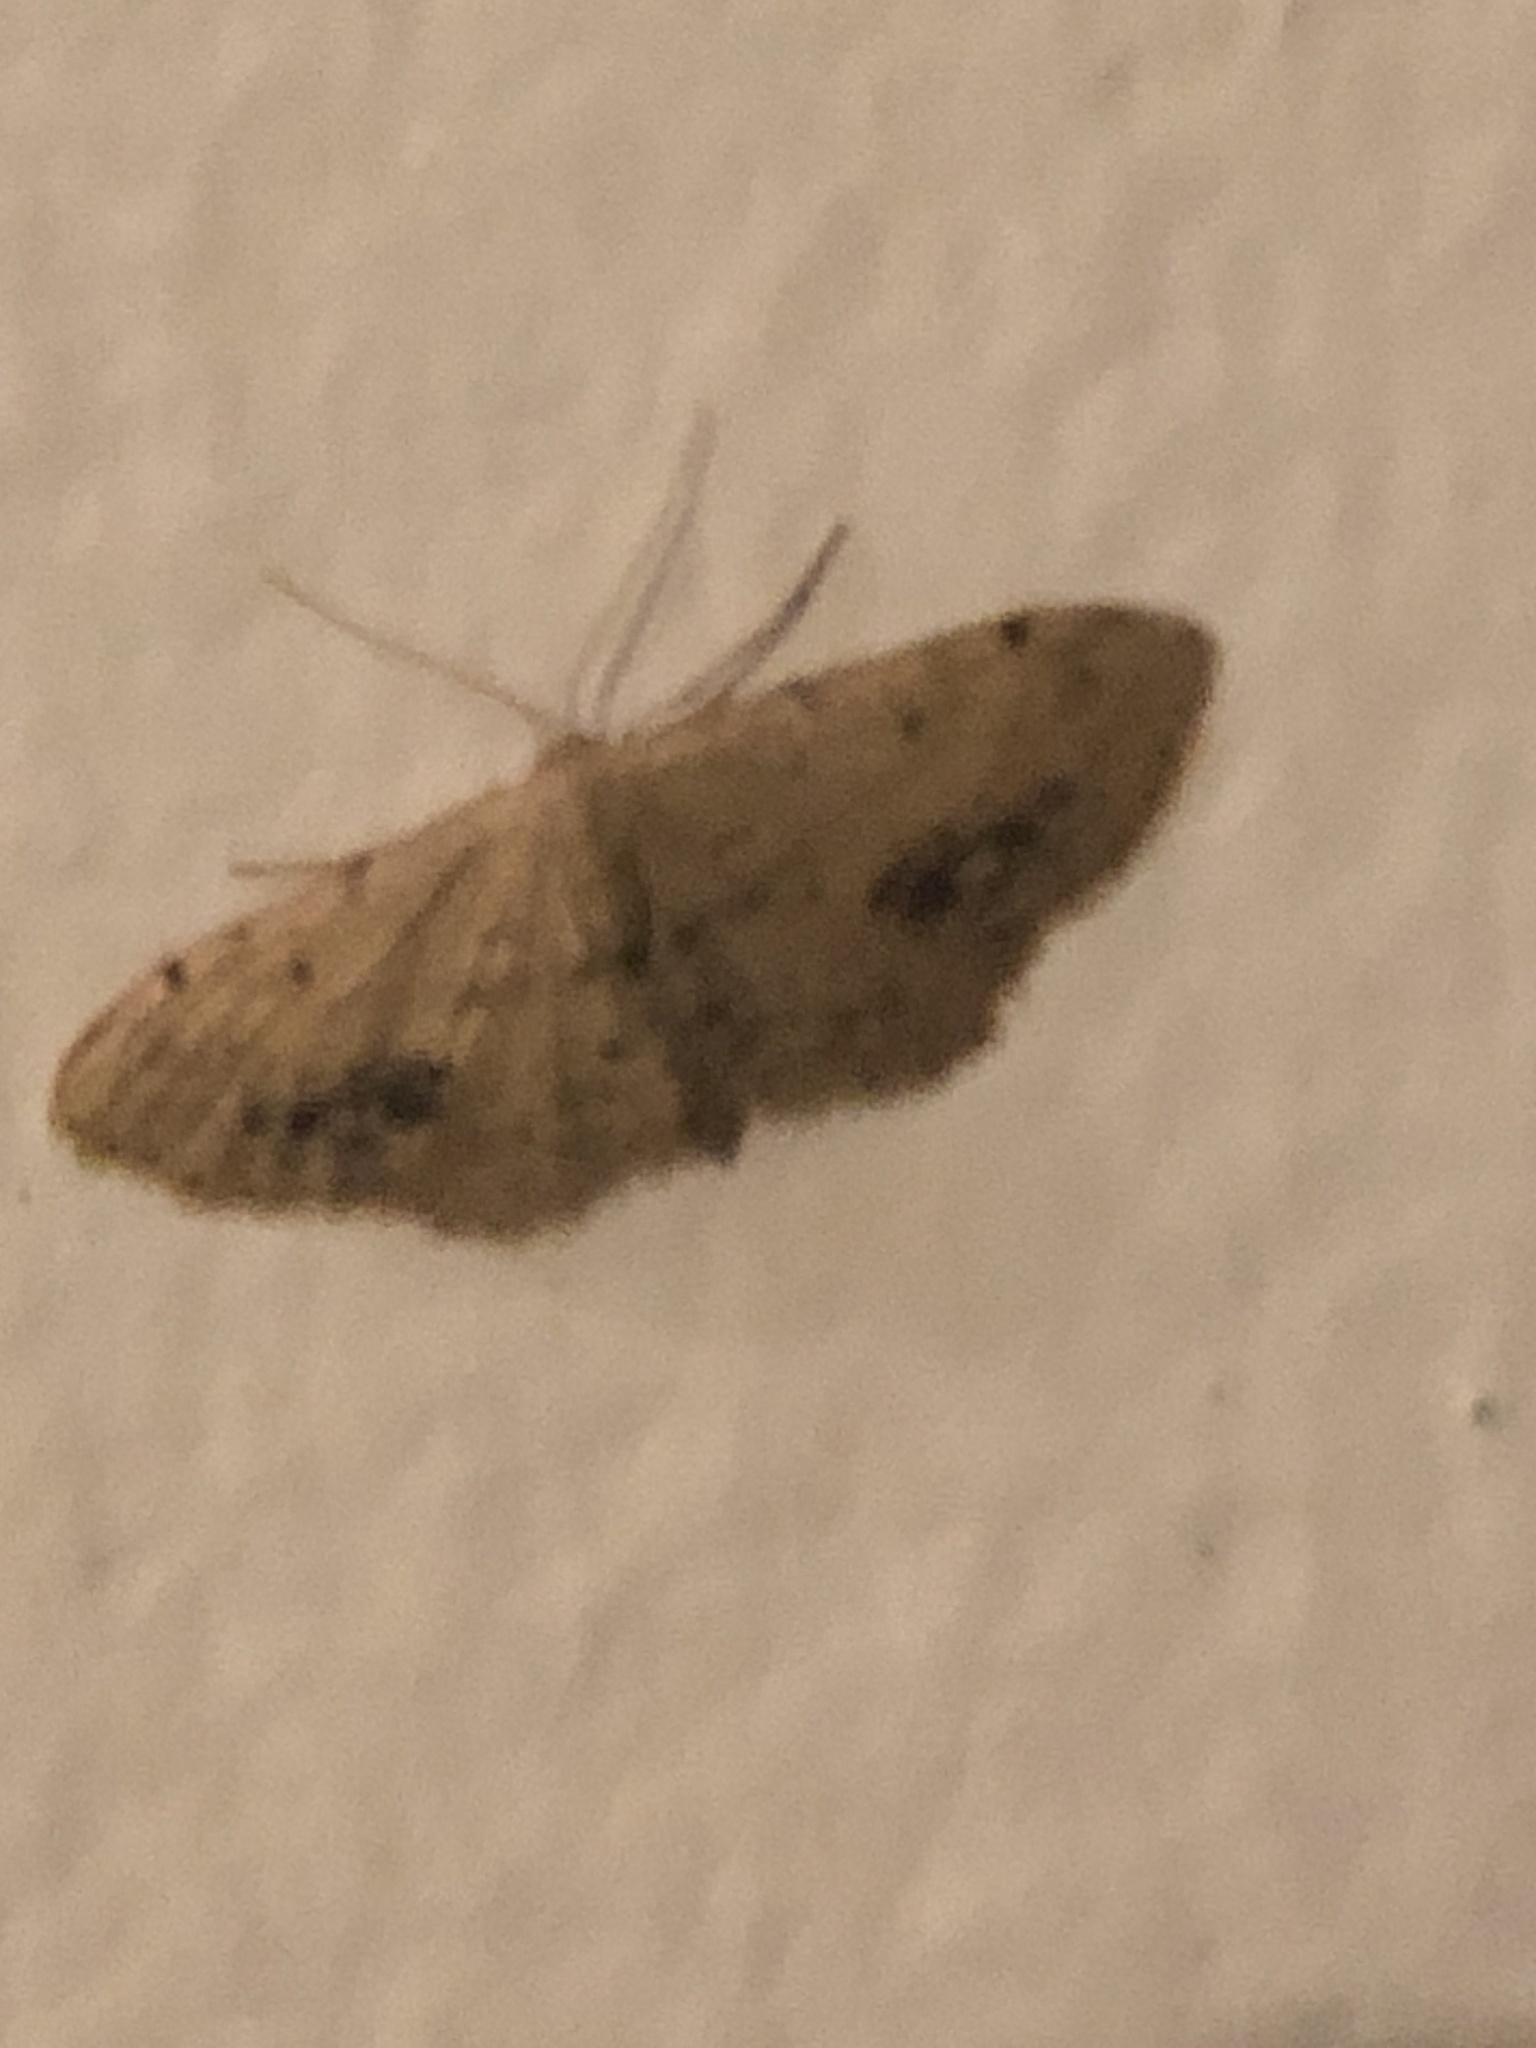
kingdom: Animalia
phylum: Arthropoda
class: Insecta
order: Lepidoptera
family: Geometridae
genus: Idaea
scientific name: Idaea dimidiata
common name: Single-dotted wave
